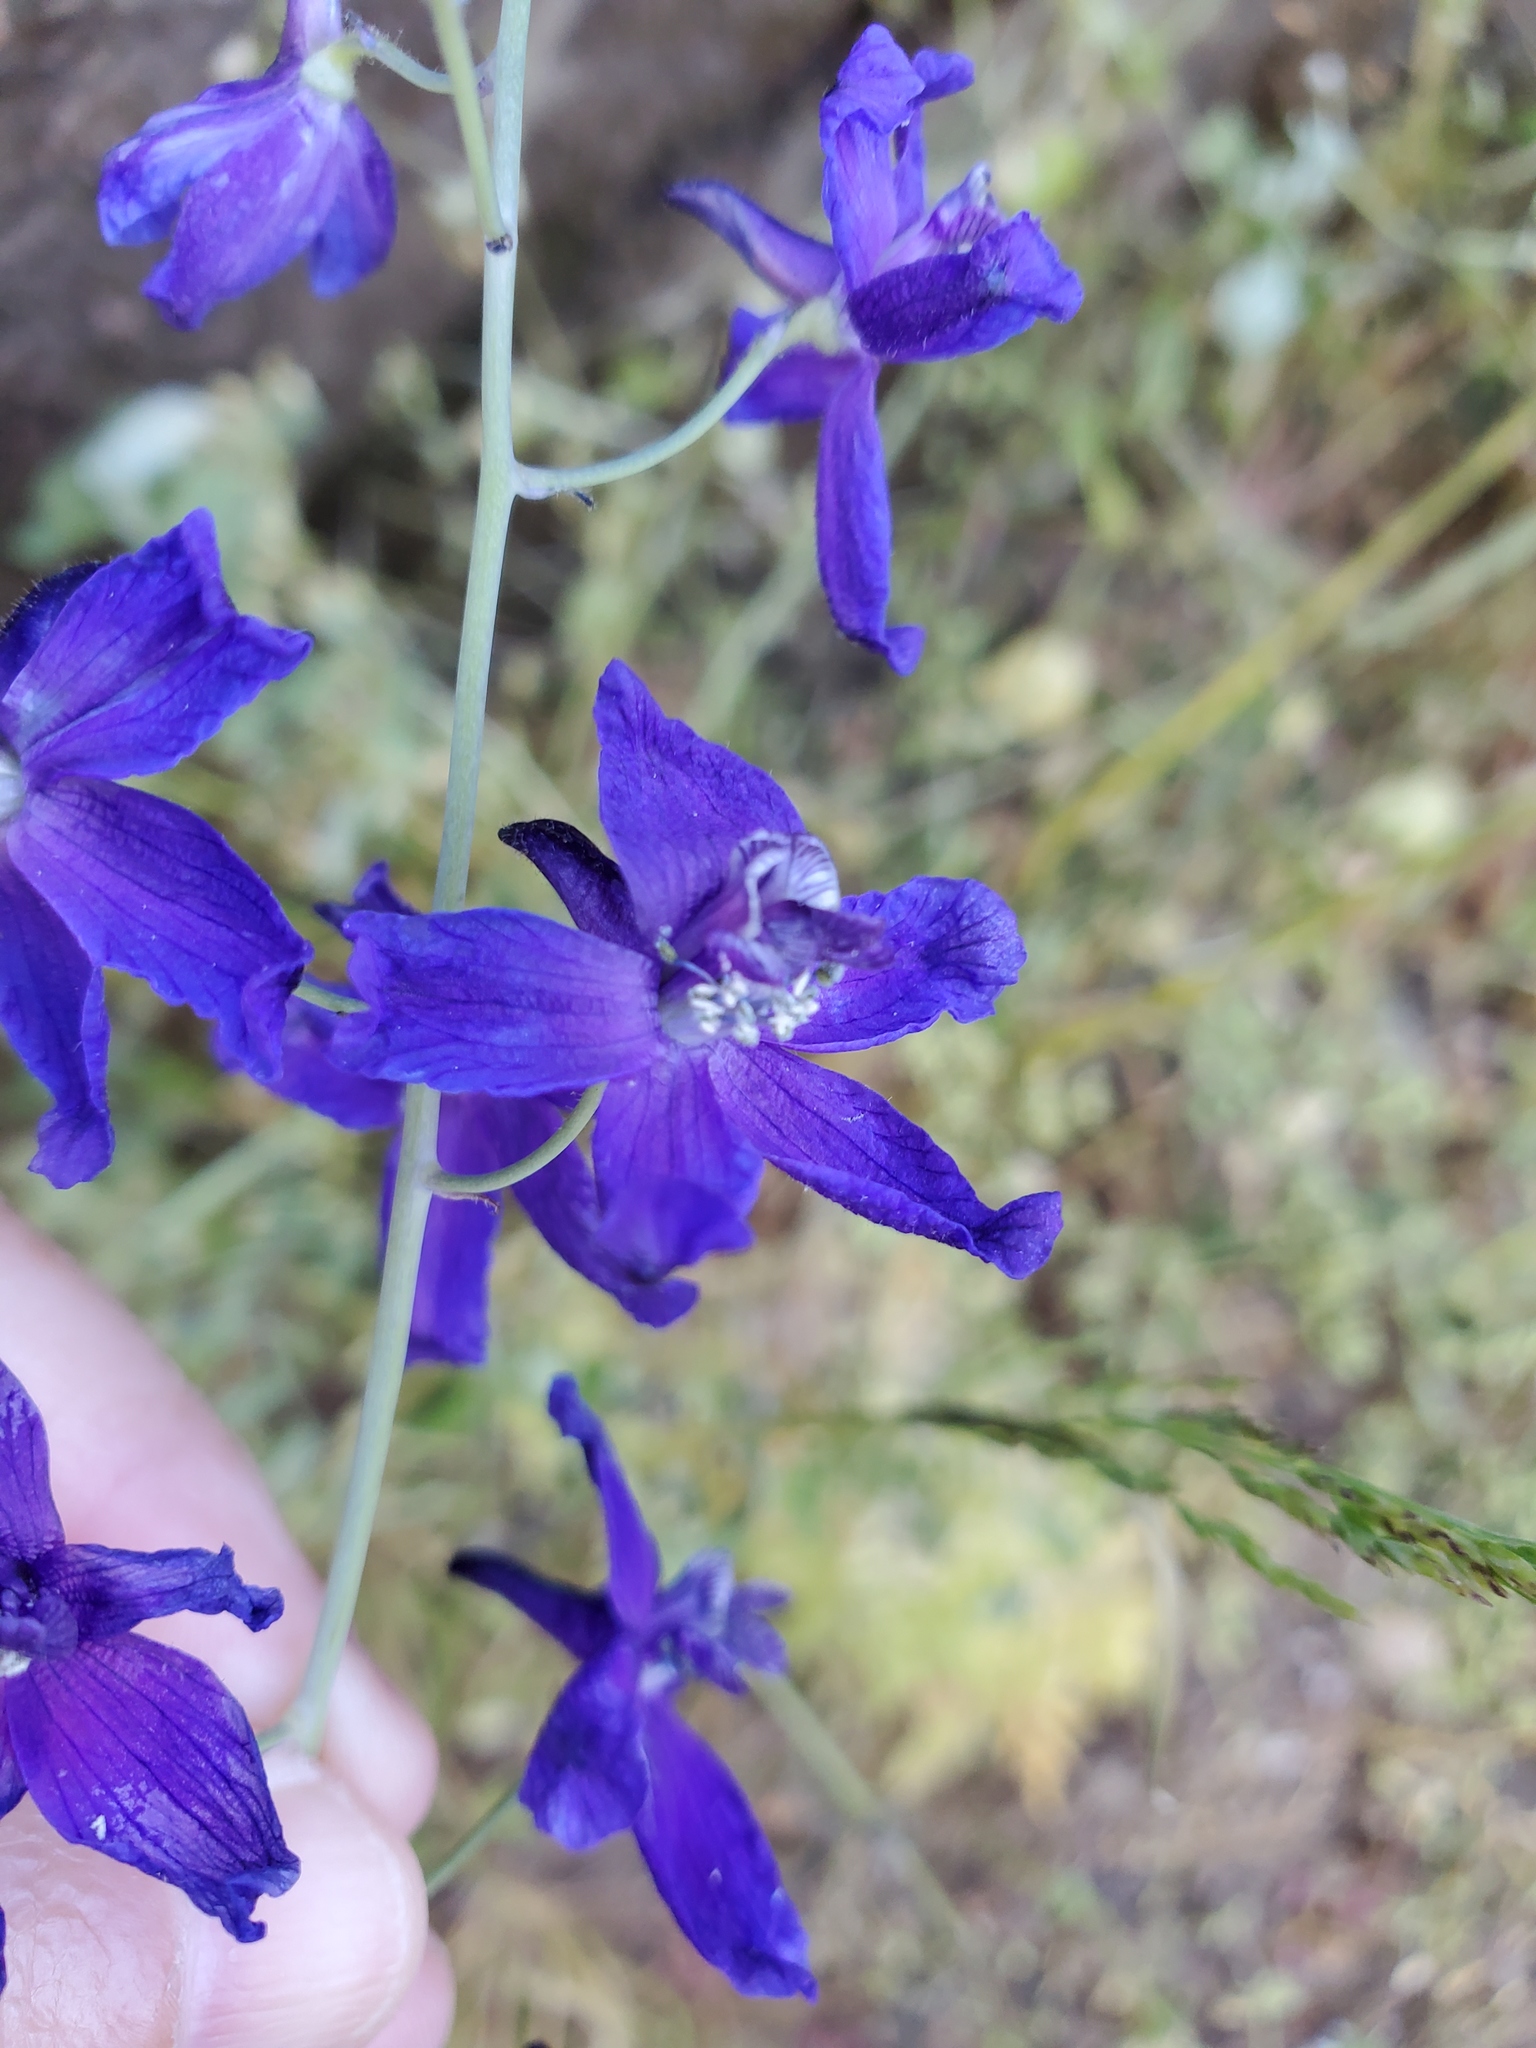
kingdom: Plantae
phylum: Tracheophyta
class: Magnoliopsida
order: Ranunculales
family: Ranunculaceae
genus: Delphinium
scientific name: Delphinium patens
